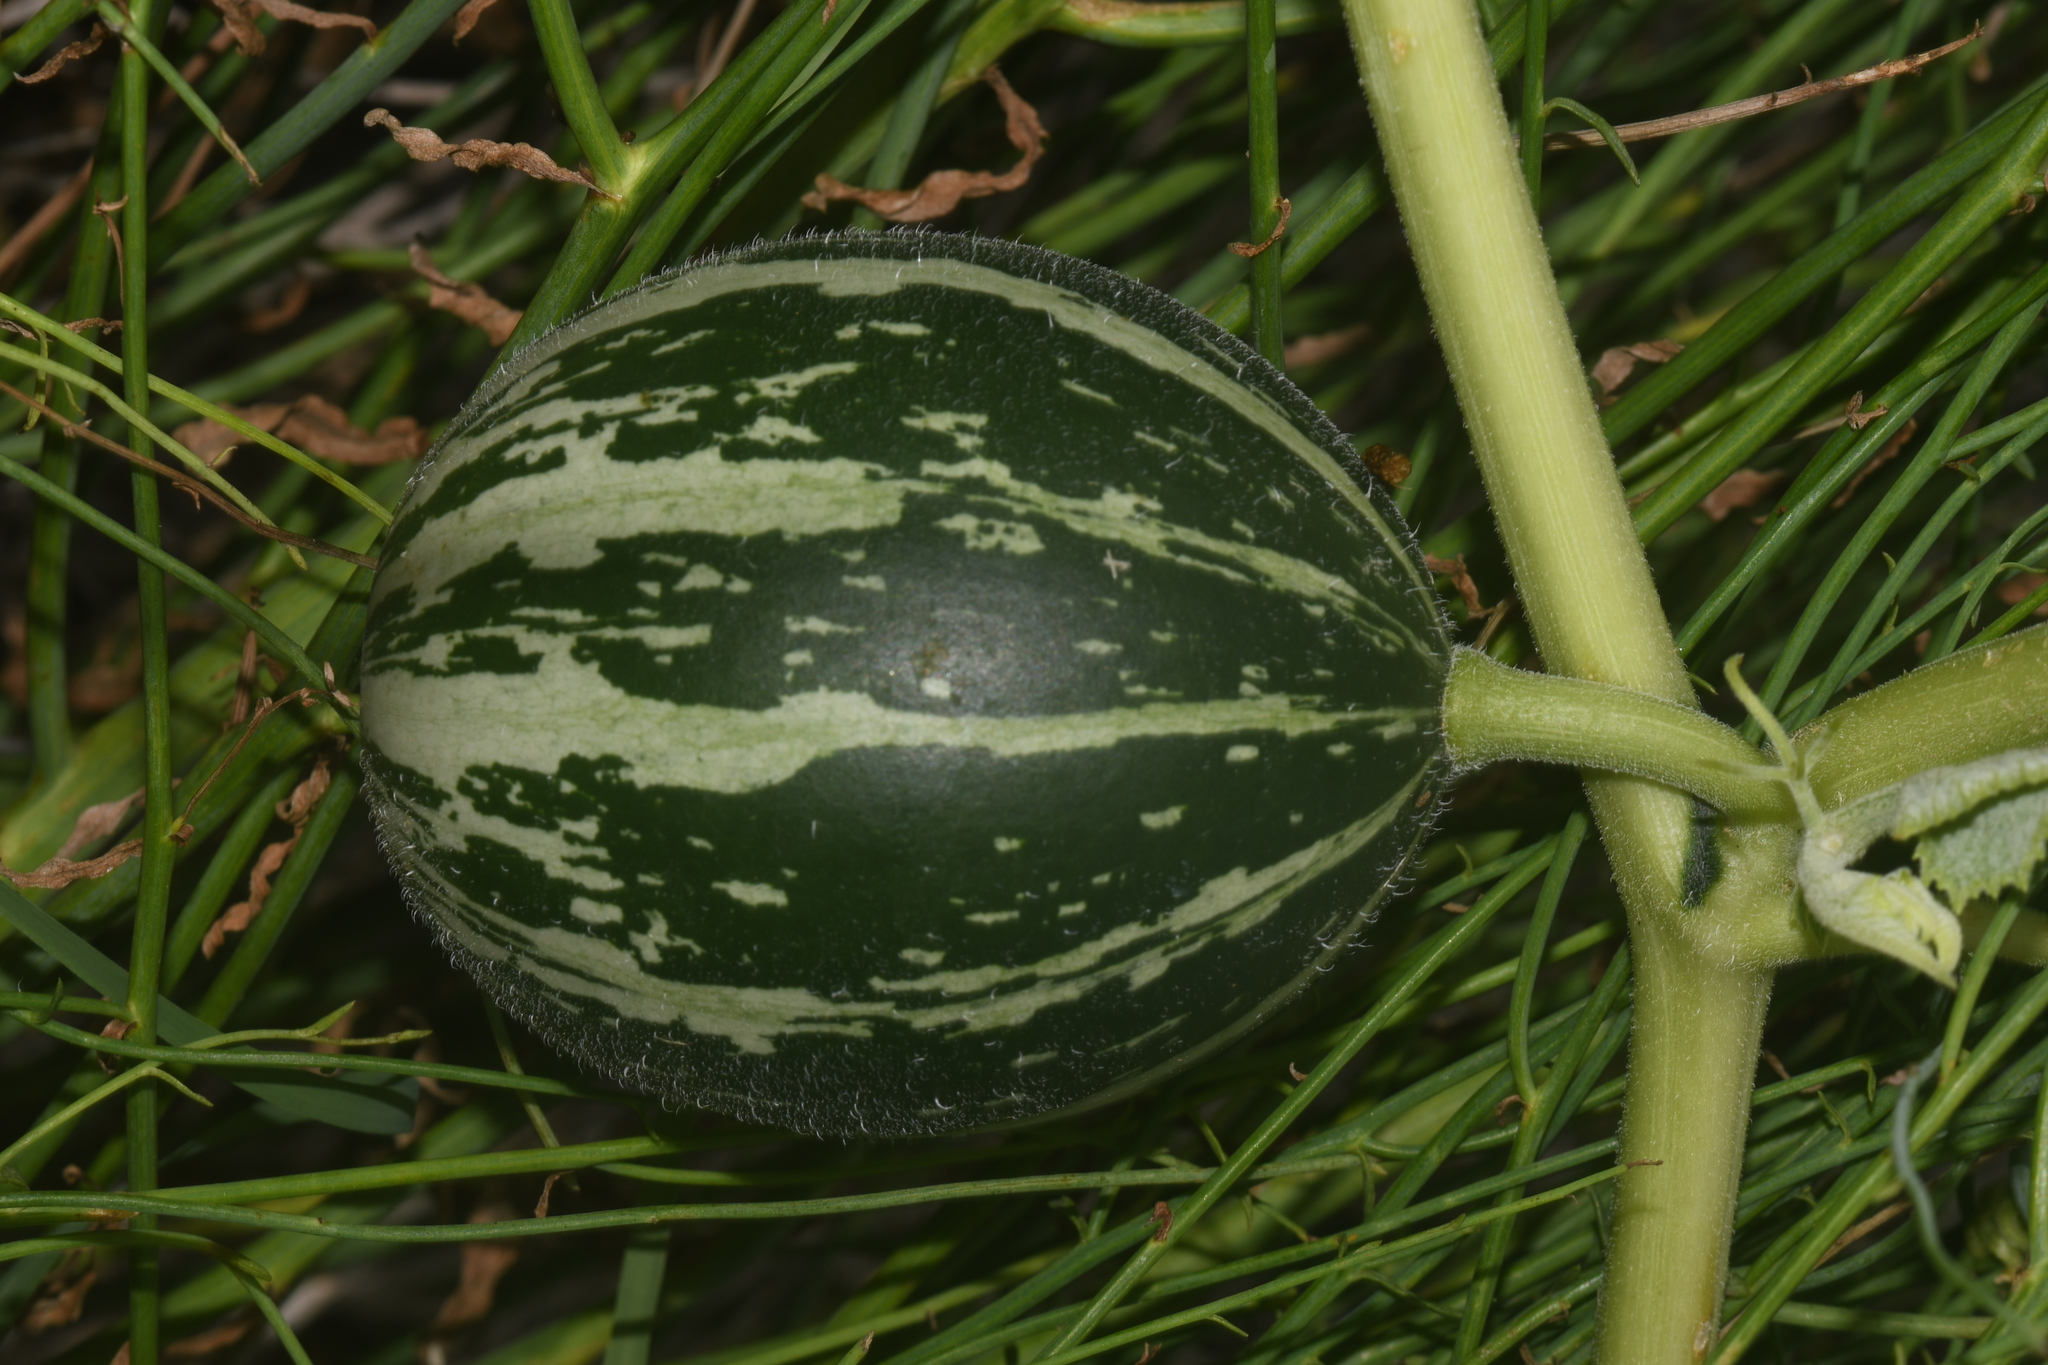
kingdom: Plantae
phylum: Tracheophyta
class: Magnoliopsida
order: Cucurbitales
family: Cucurbitaceae
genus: Cucurbita
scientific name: Cucurbita foetidissima
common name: Buffalo gourd
